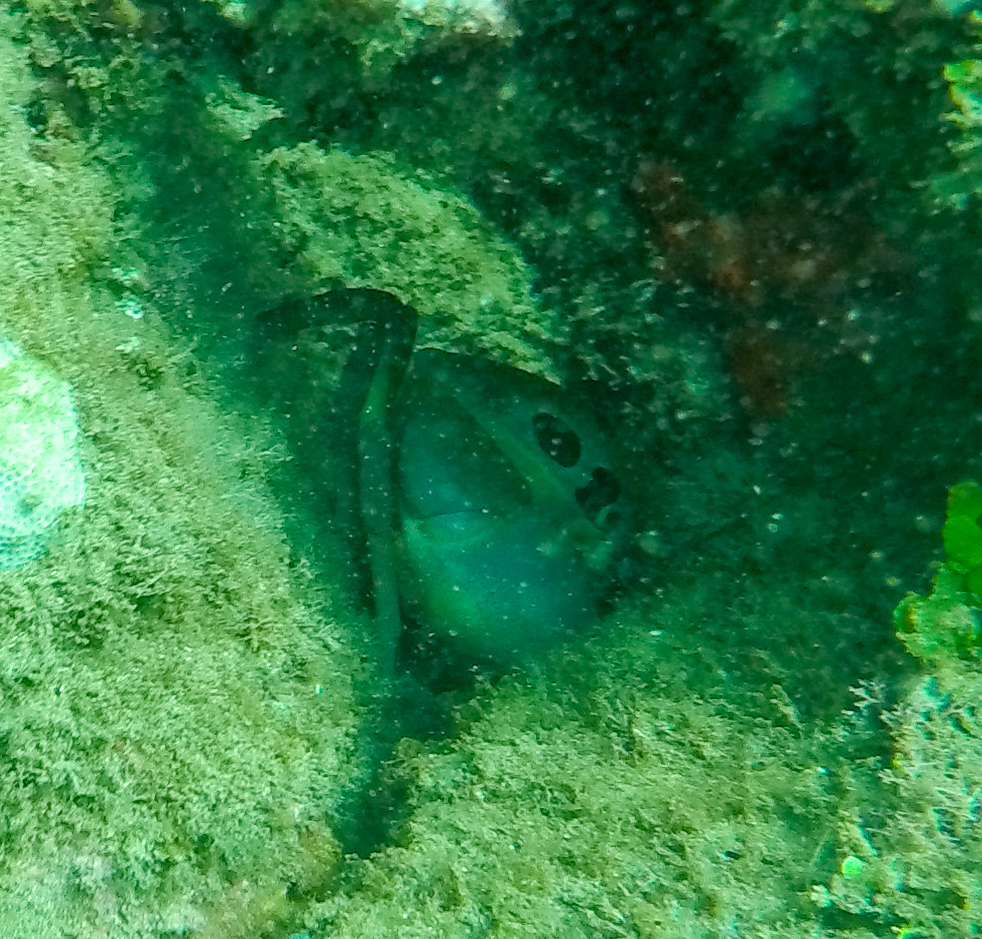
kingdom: Animalia
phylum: Arthropoda
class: Malacostraca
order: Decapoda
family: Carpiliidae
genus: Carpilius
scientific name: Carpilius maculatus
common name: Spotted reef crab
